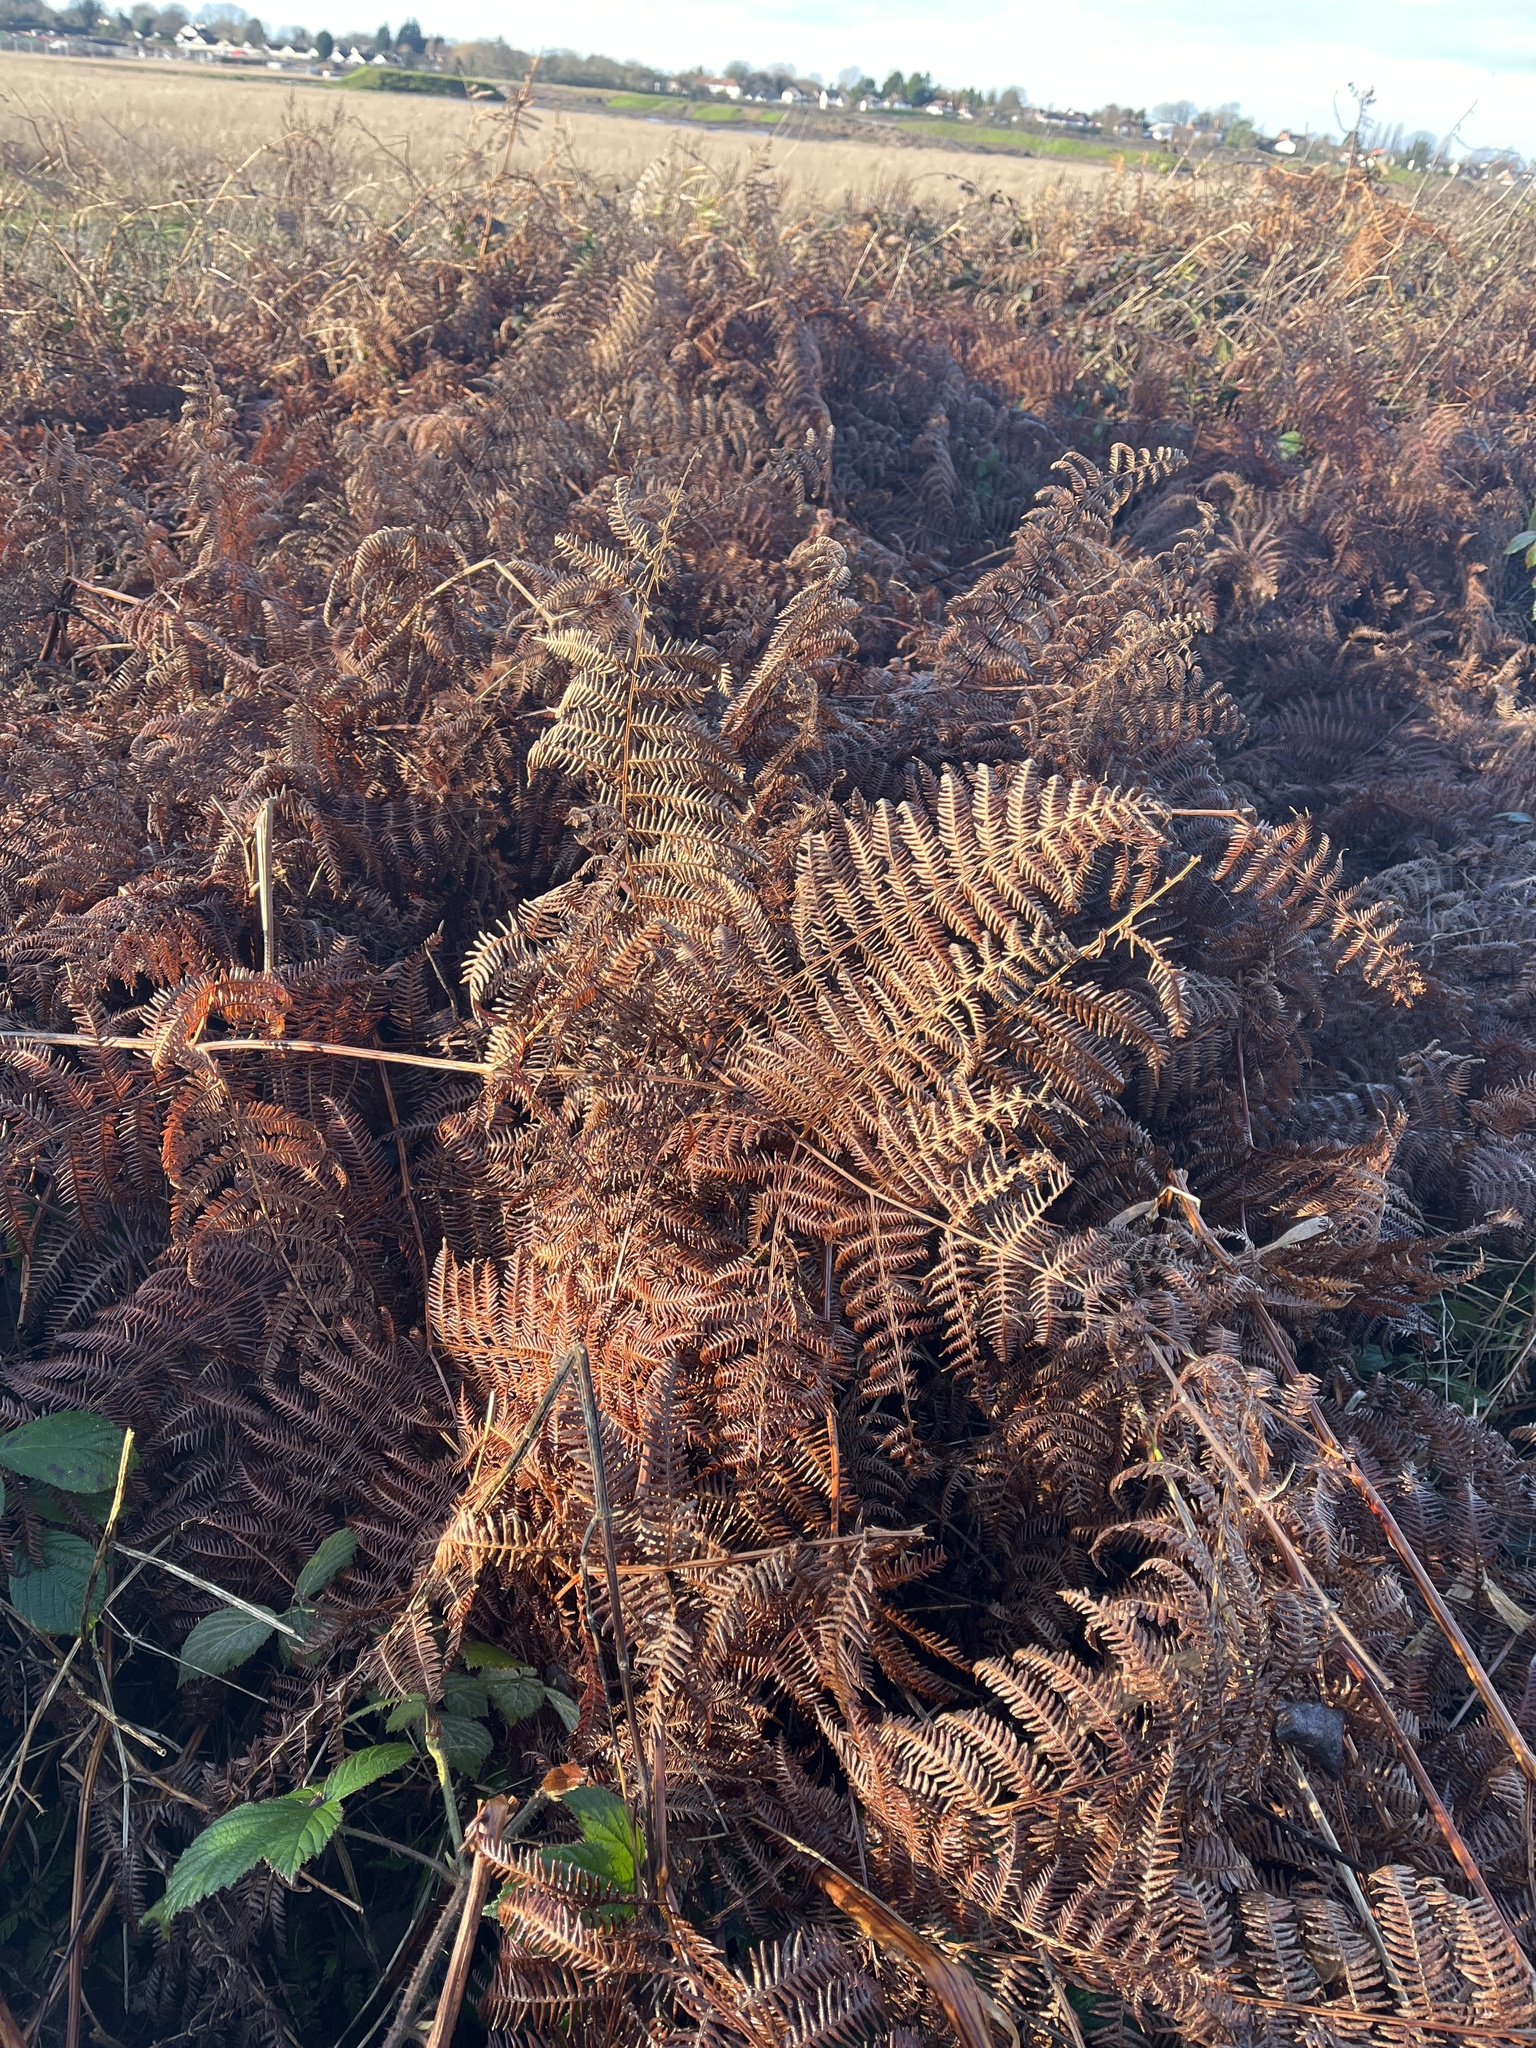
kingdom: Plantae
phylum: Tracheophyta
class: Polypodiopsida
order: Polypodiales
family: Dennstaedtiaceae
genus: Pteridium
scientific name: Pteridium aquilinum
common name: Bracken
